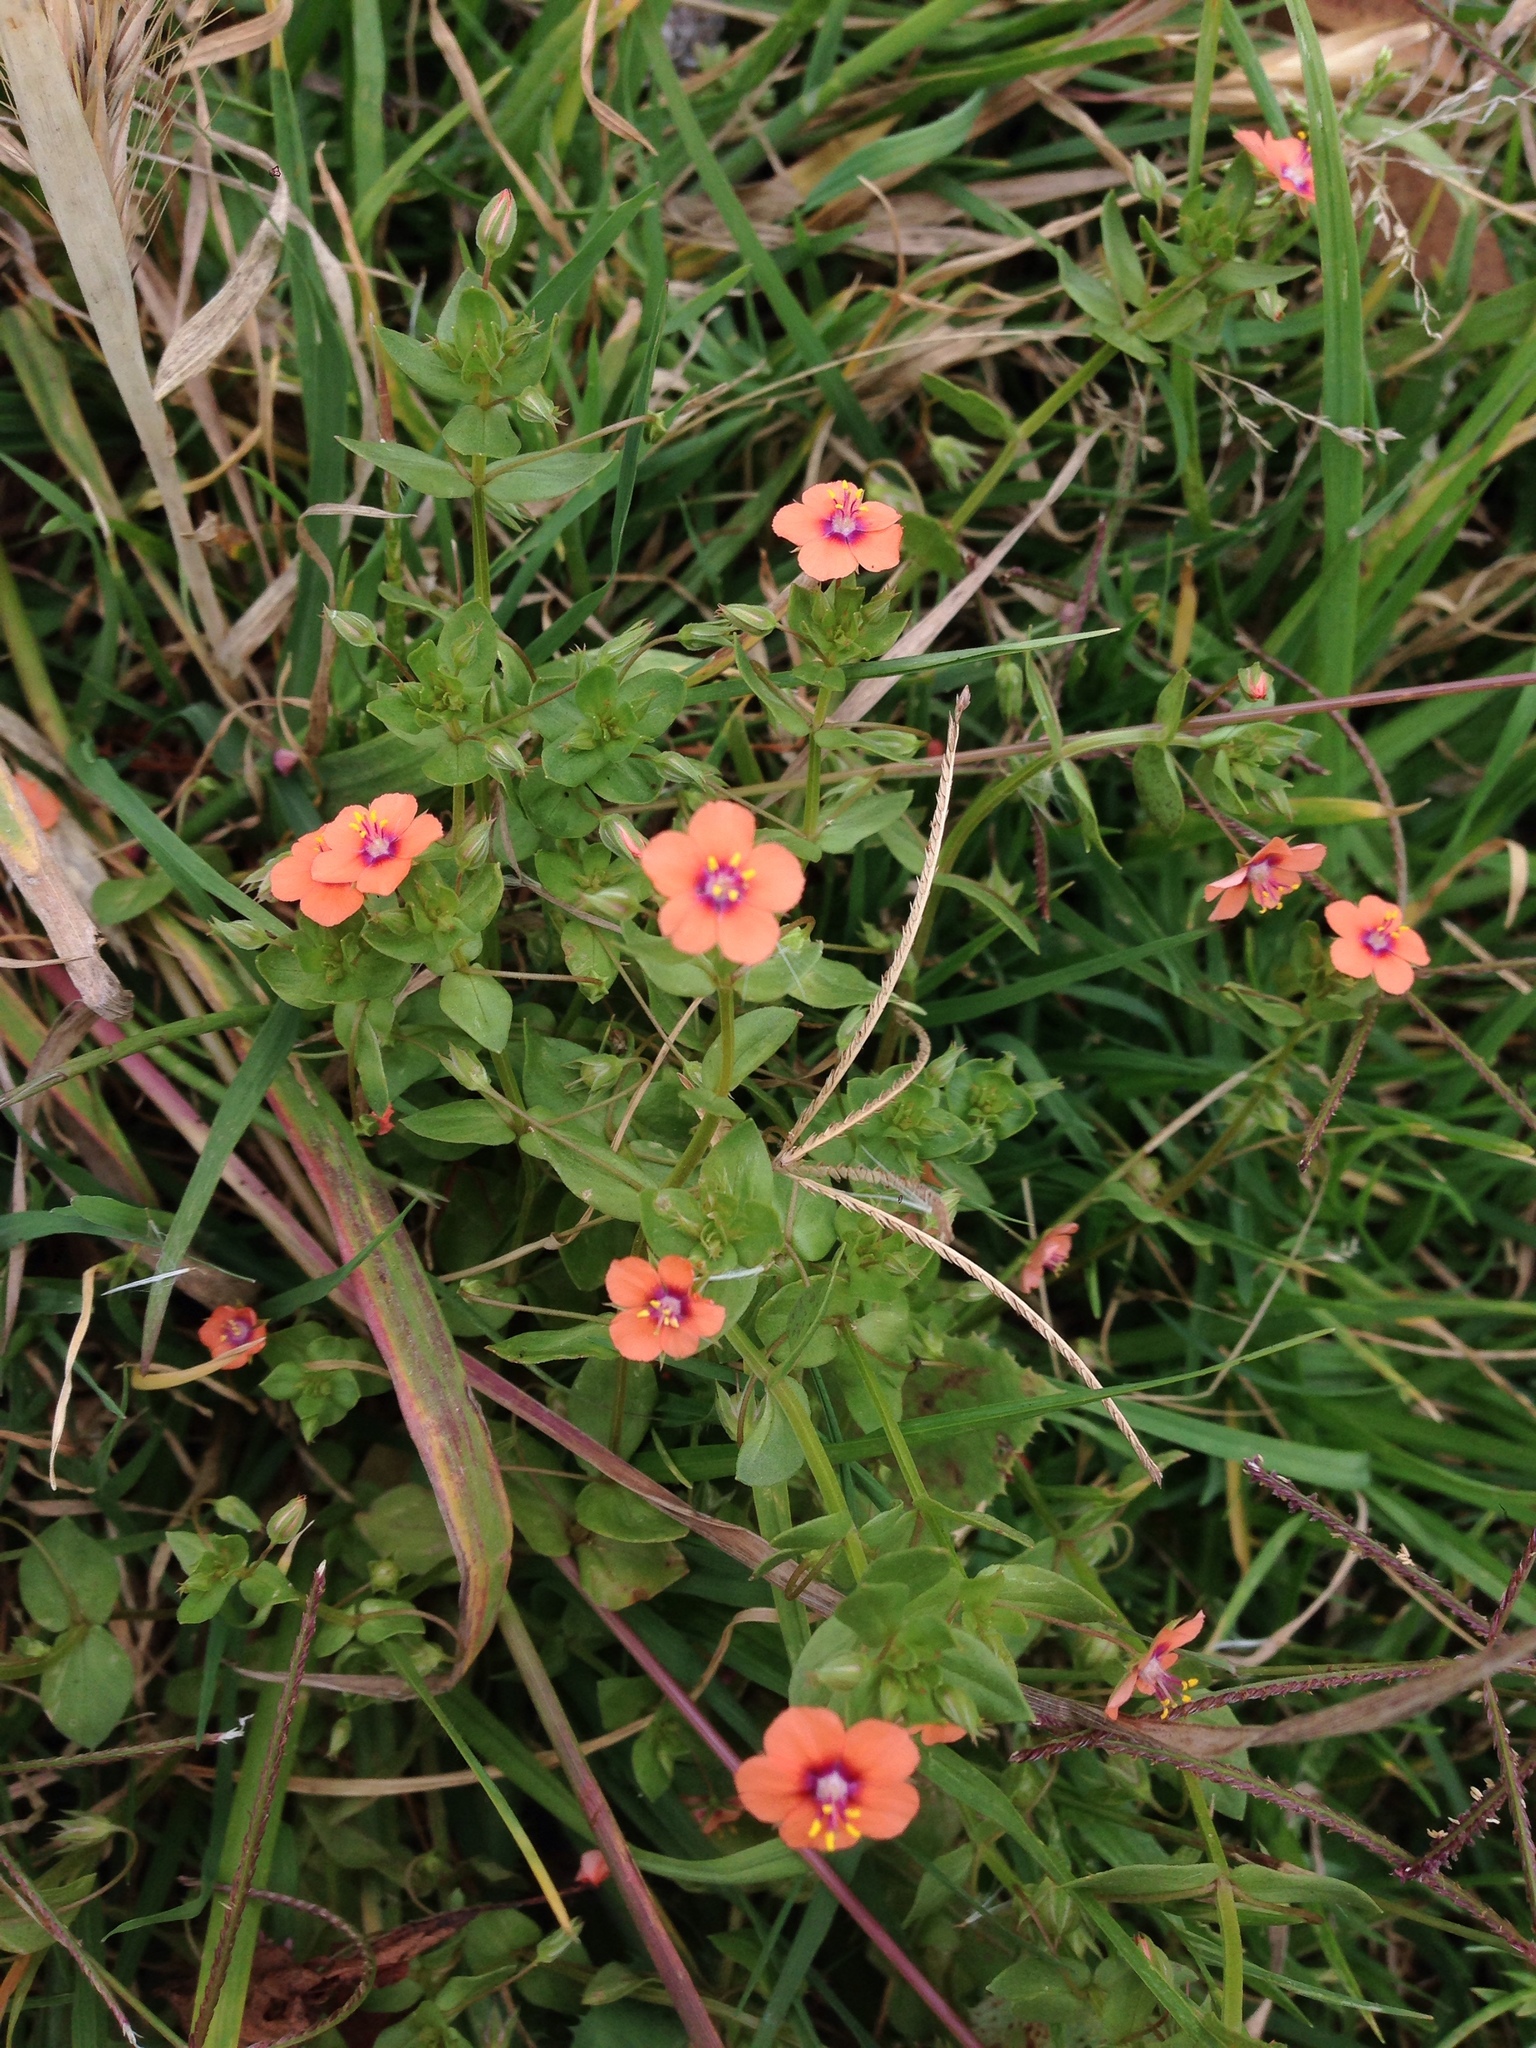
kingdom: Plantae
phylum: Tracheophyta
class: Magnoliopsida
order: Ericales
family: Primulaceae
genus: Lysimachia
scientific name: Lysimachia arvensis
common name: Scarlet pimpernel
